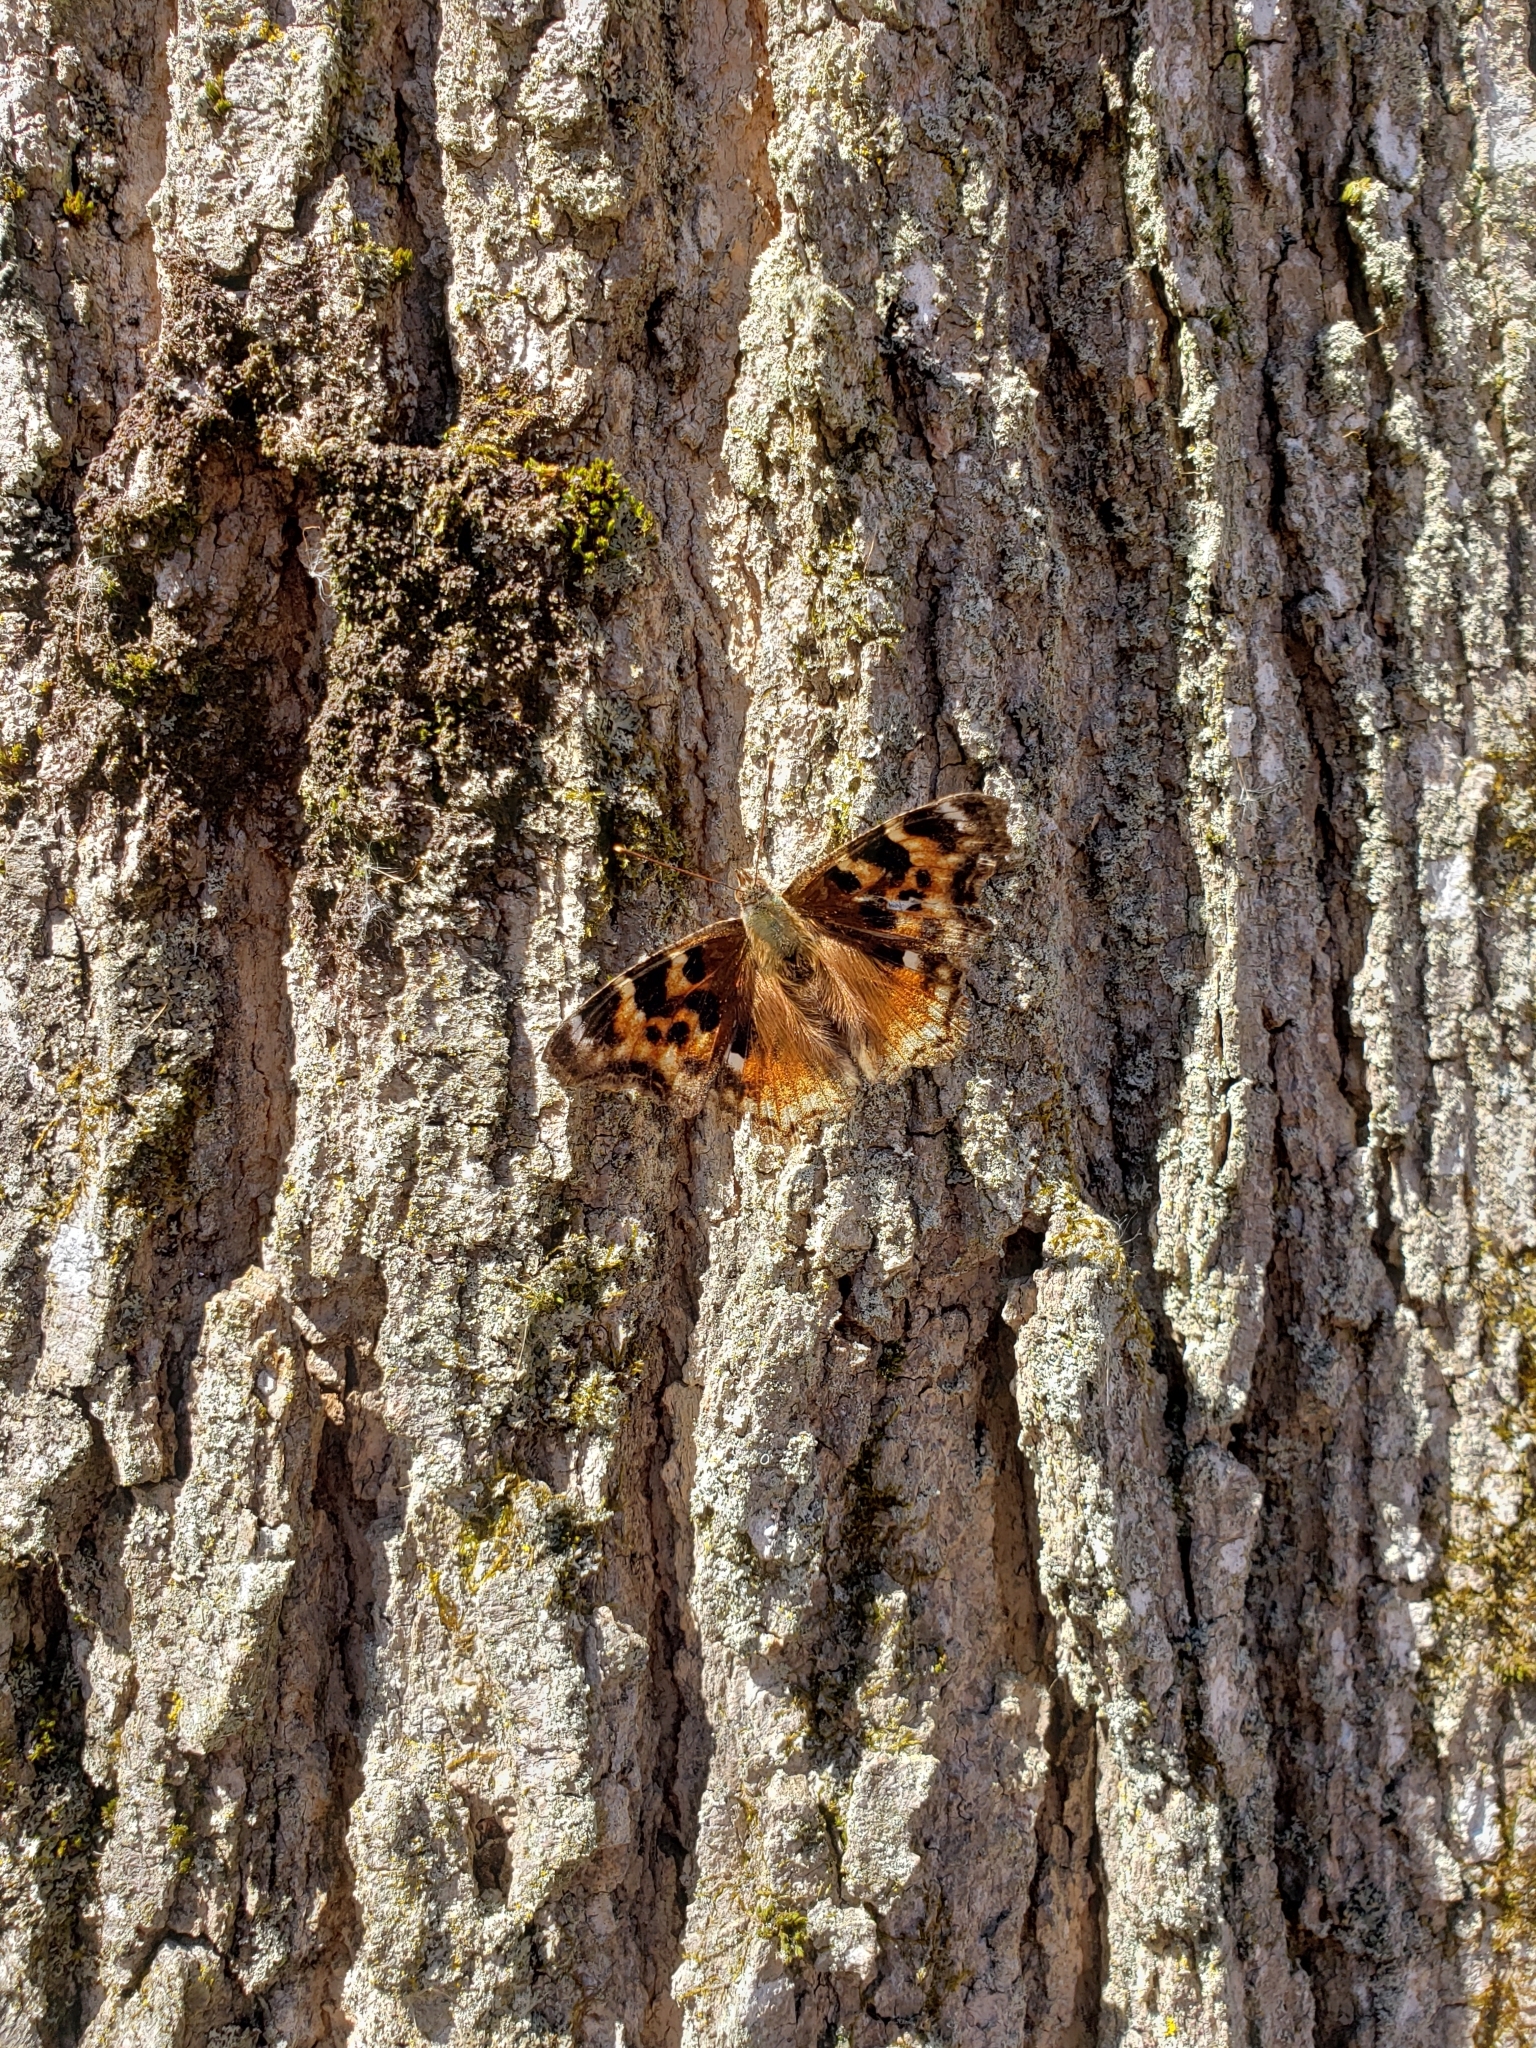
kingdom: Animalia
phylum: Arthropoda
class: Insecta
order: Lepidoptera
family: Nymphalidae
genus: Polygonia
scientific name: Polygonia vaualbum
